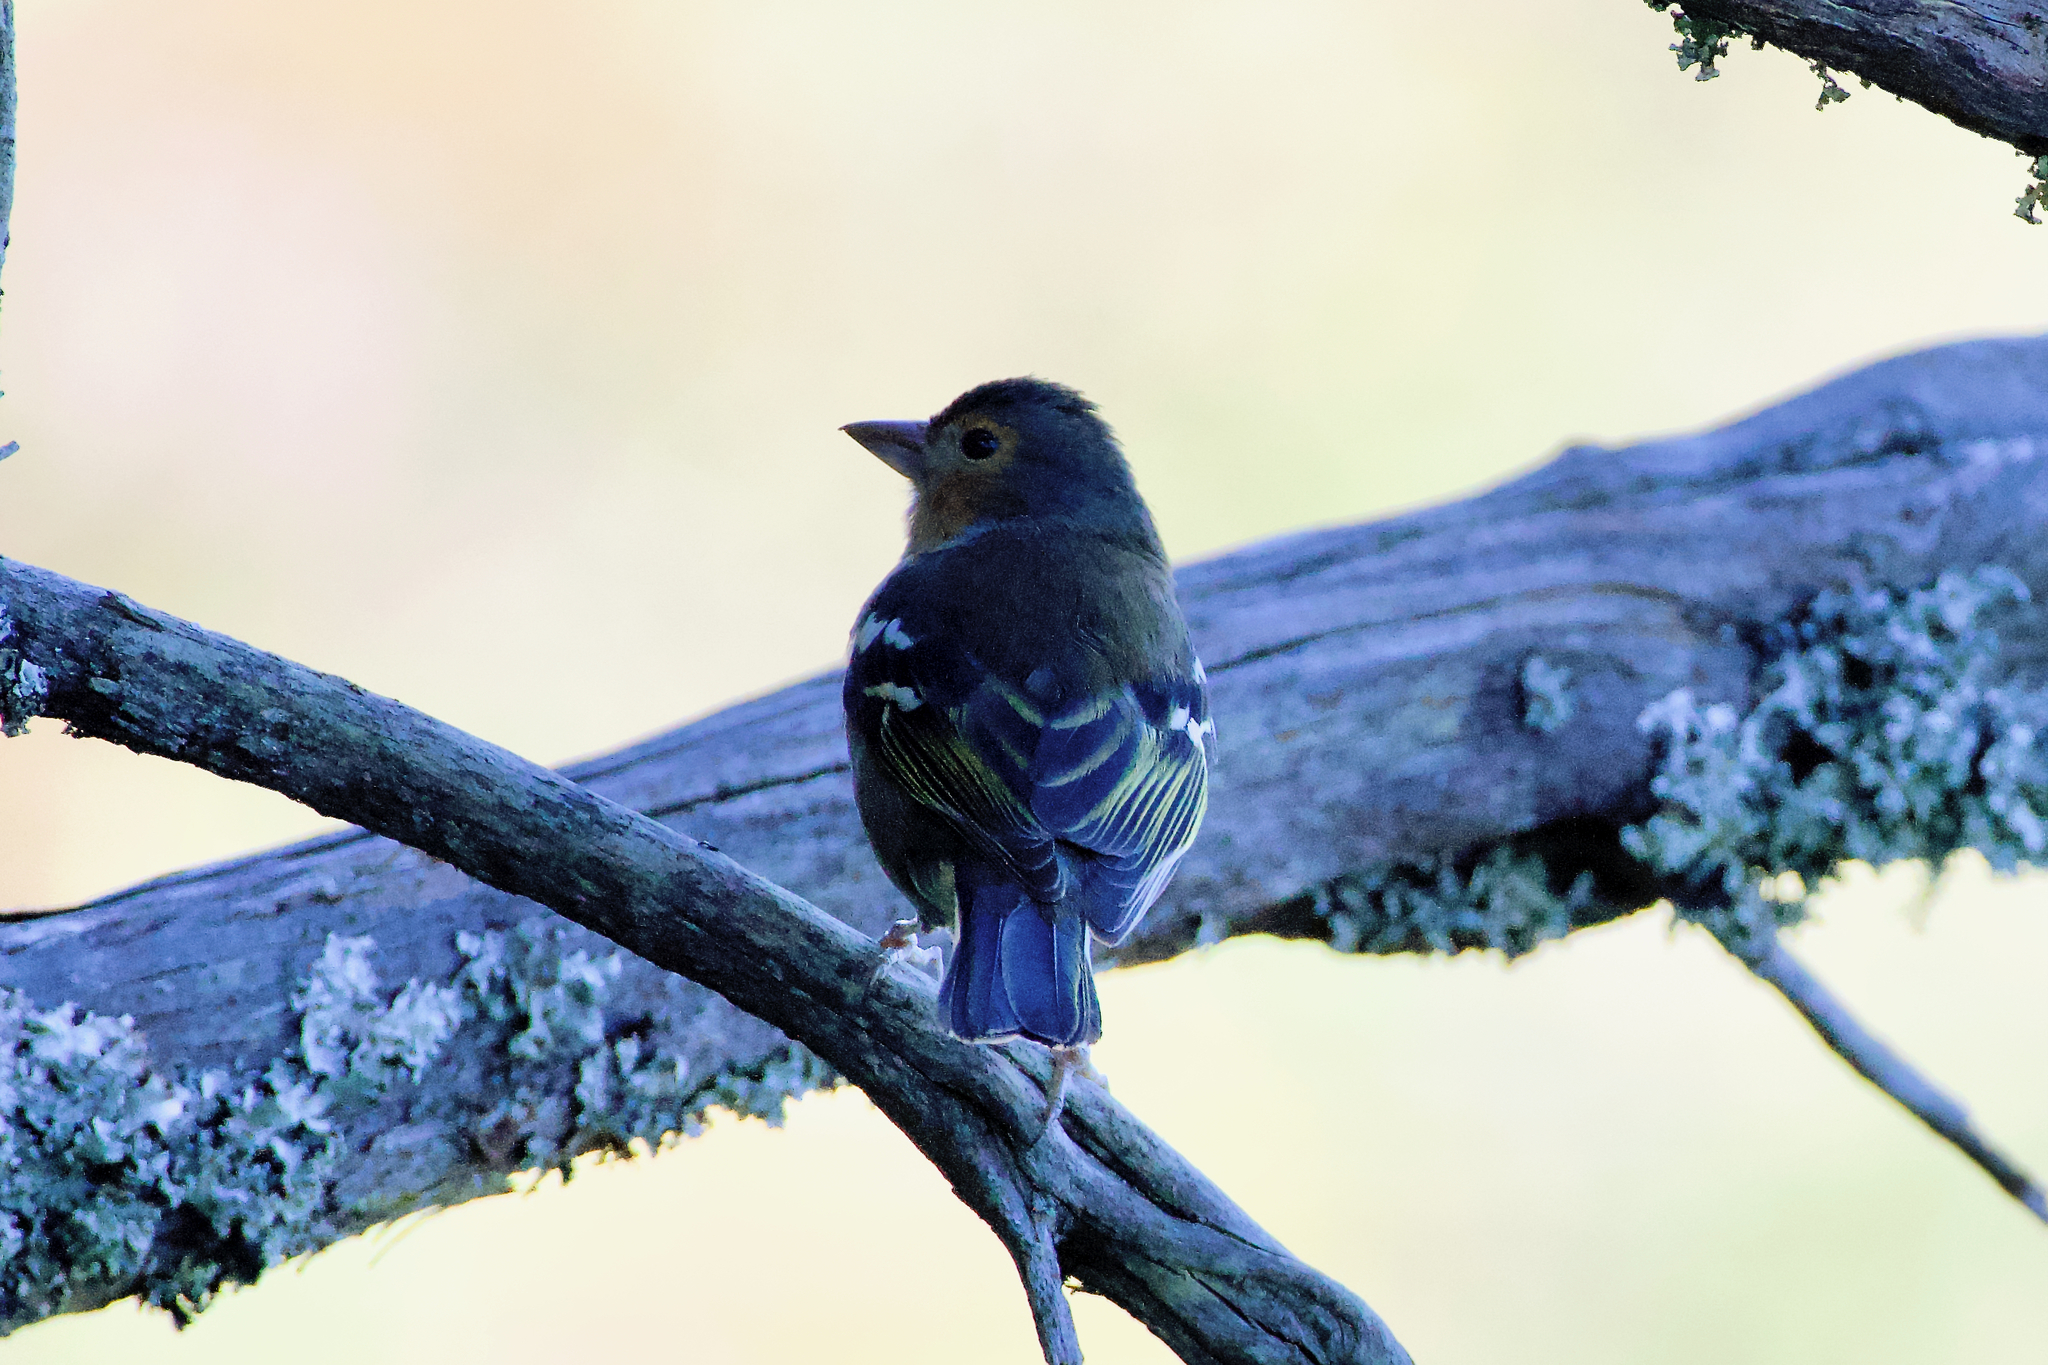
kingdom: Animalia
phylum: Chordata
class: Aves
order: Passeriformes
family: Fringillidae
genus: Fringilla
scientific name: Fringilla canariensis
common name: Canary islands chaffinch
